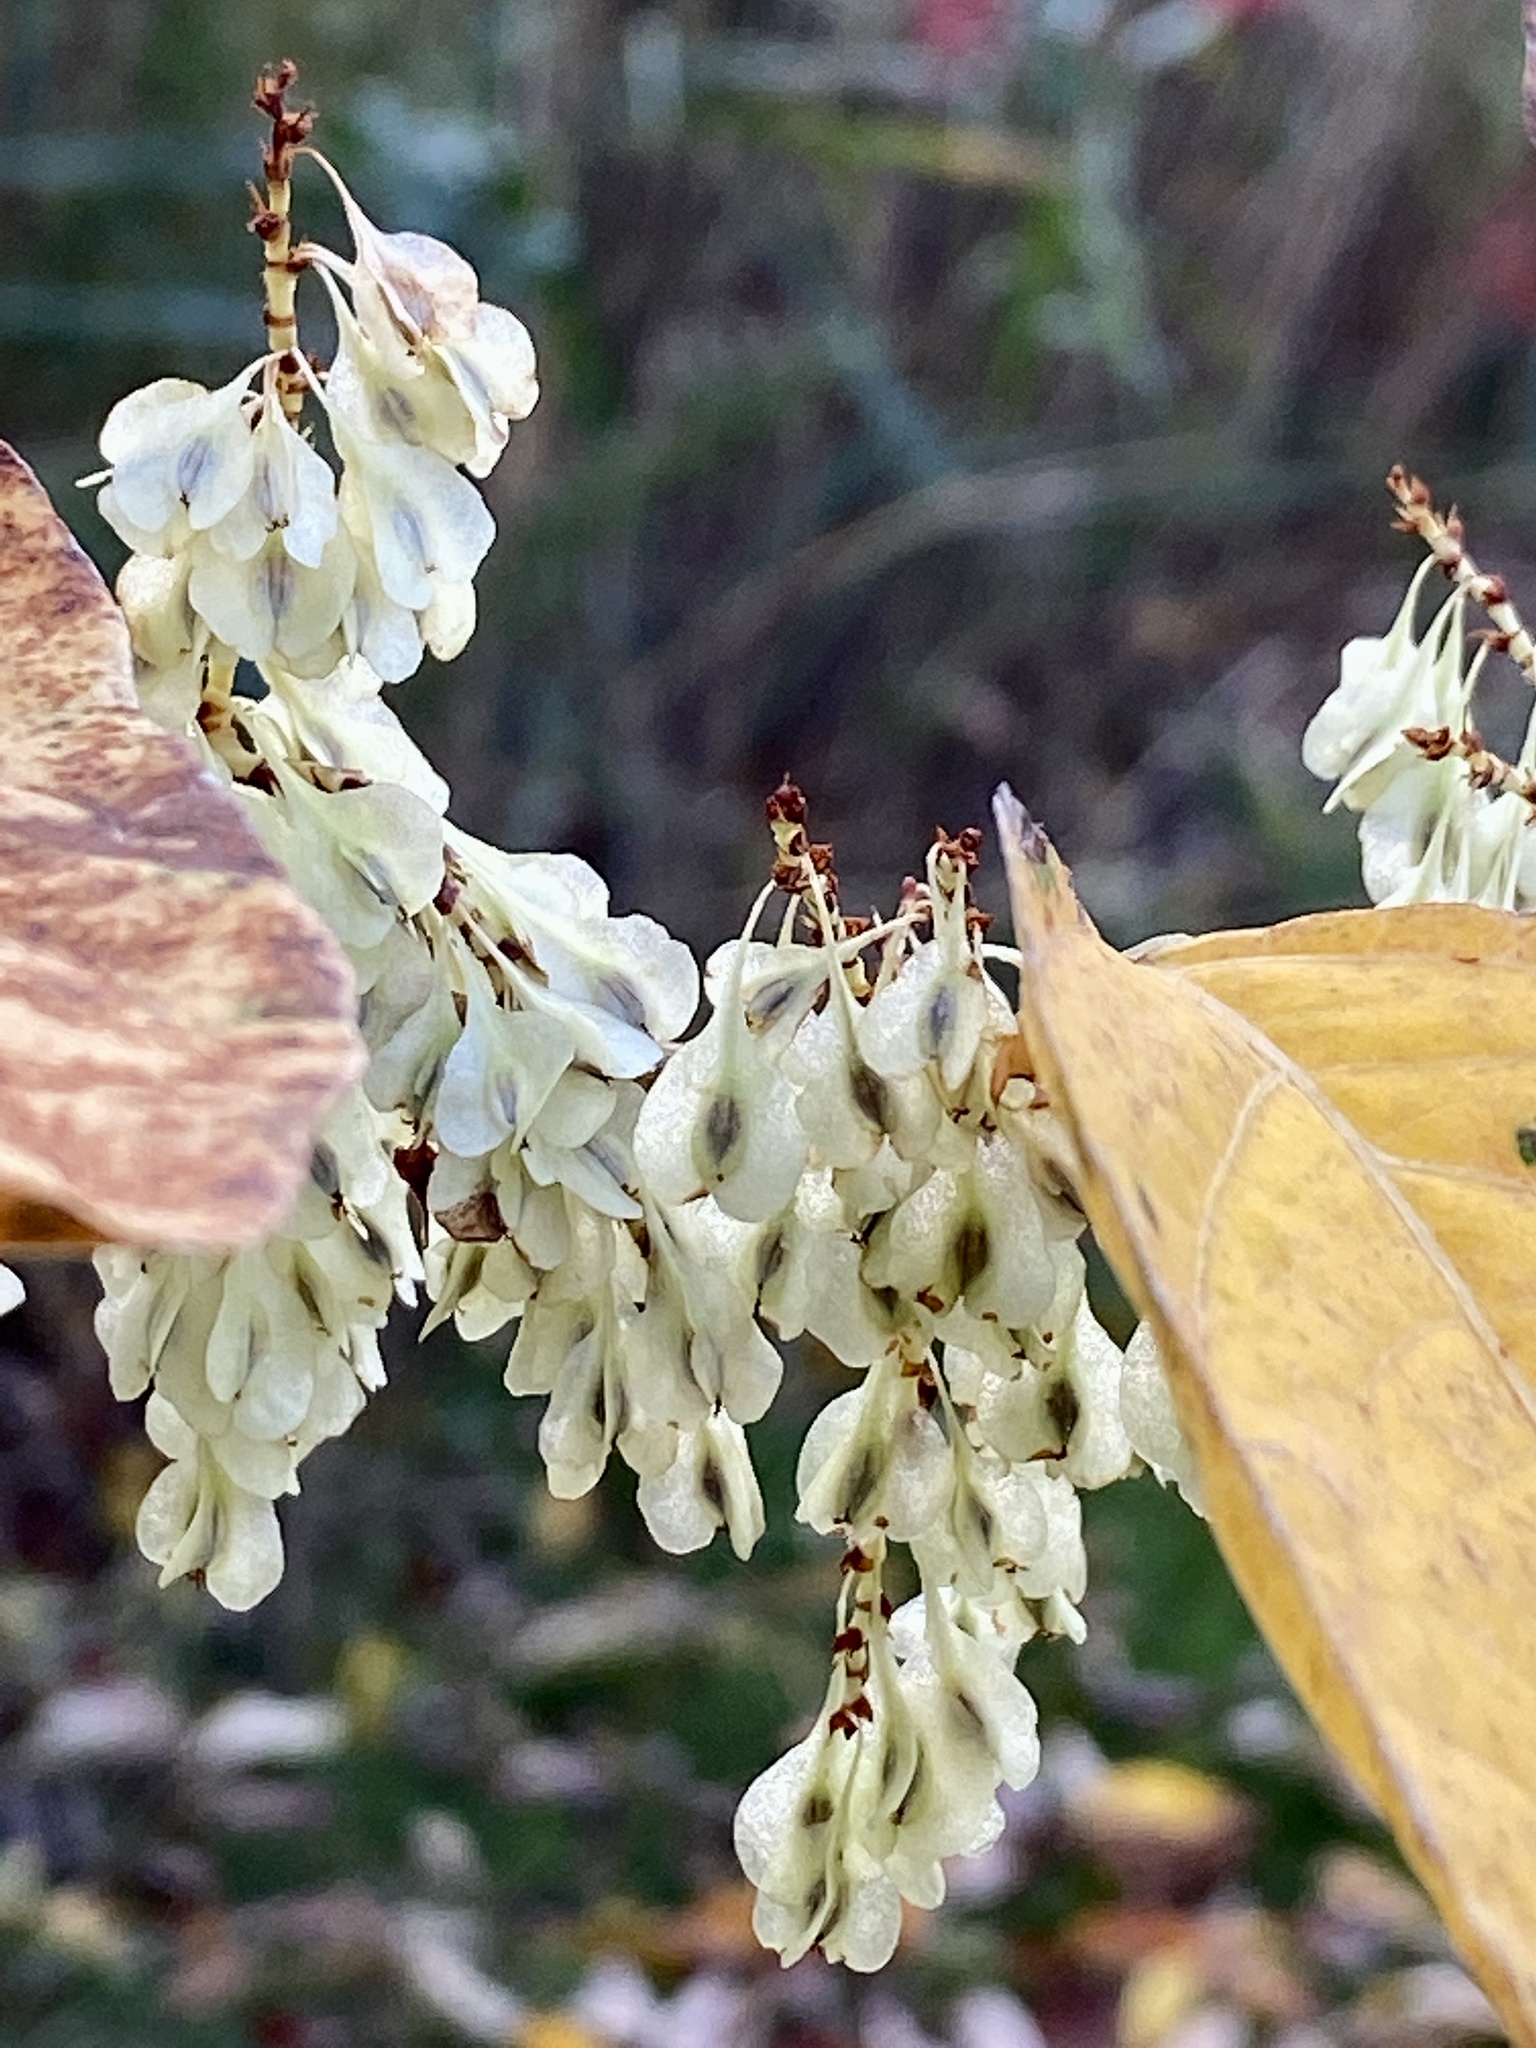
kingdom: Plantae
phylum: Tracheophyta
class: Magnoliopsida
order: Caryophyllales
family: Polygonaceae
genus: Reynoutria
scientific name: Reynoutria japonica
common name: Japanese knotweed
